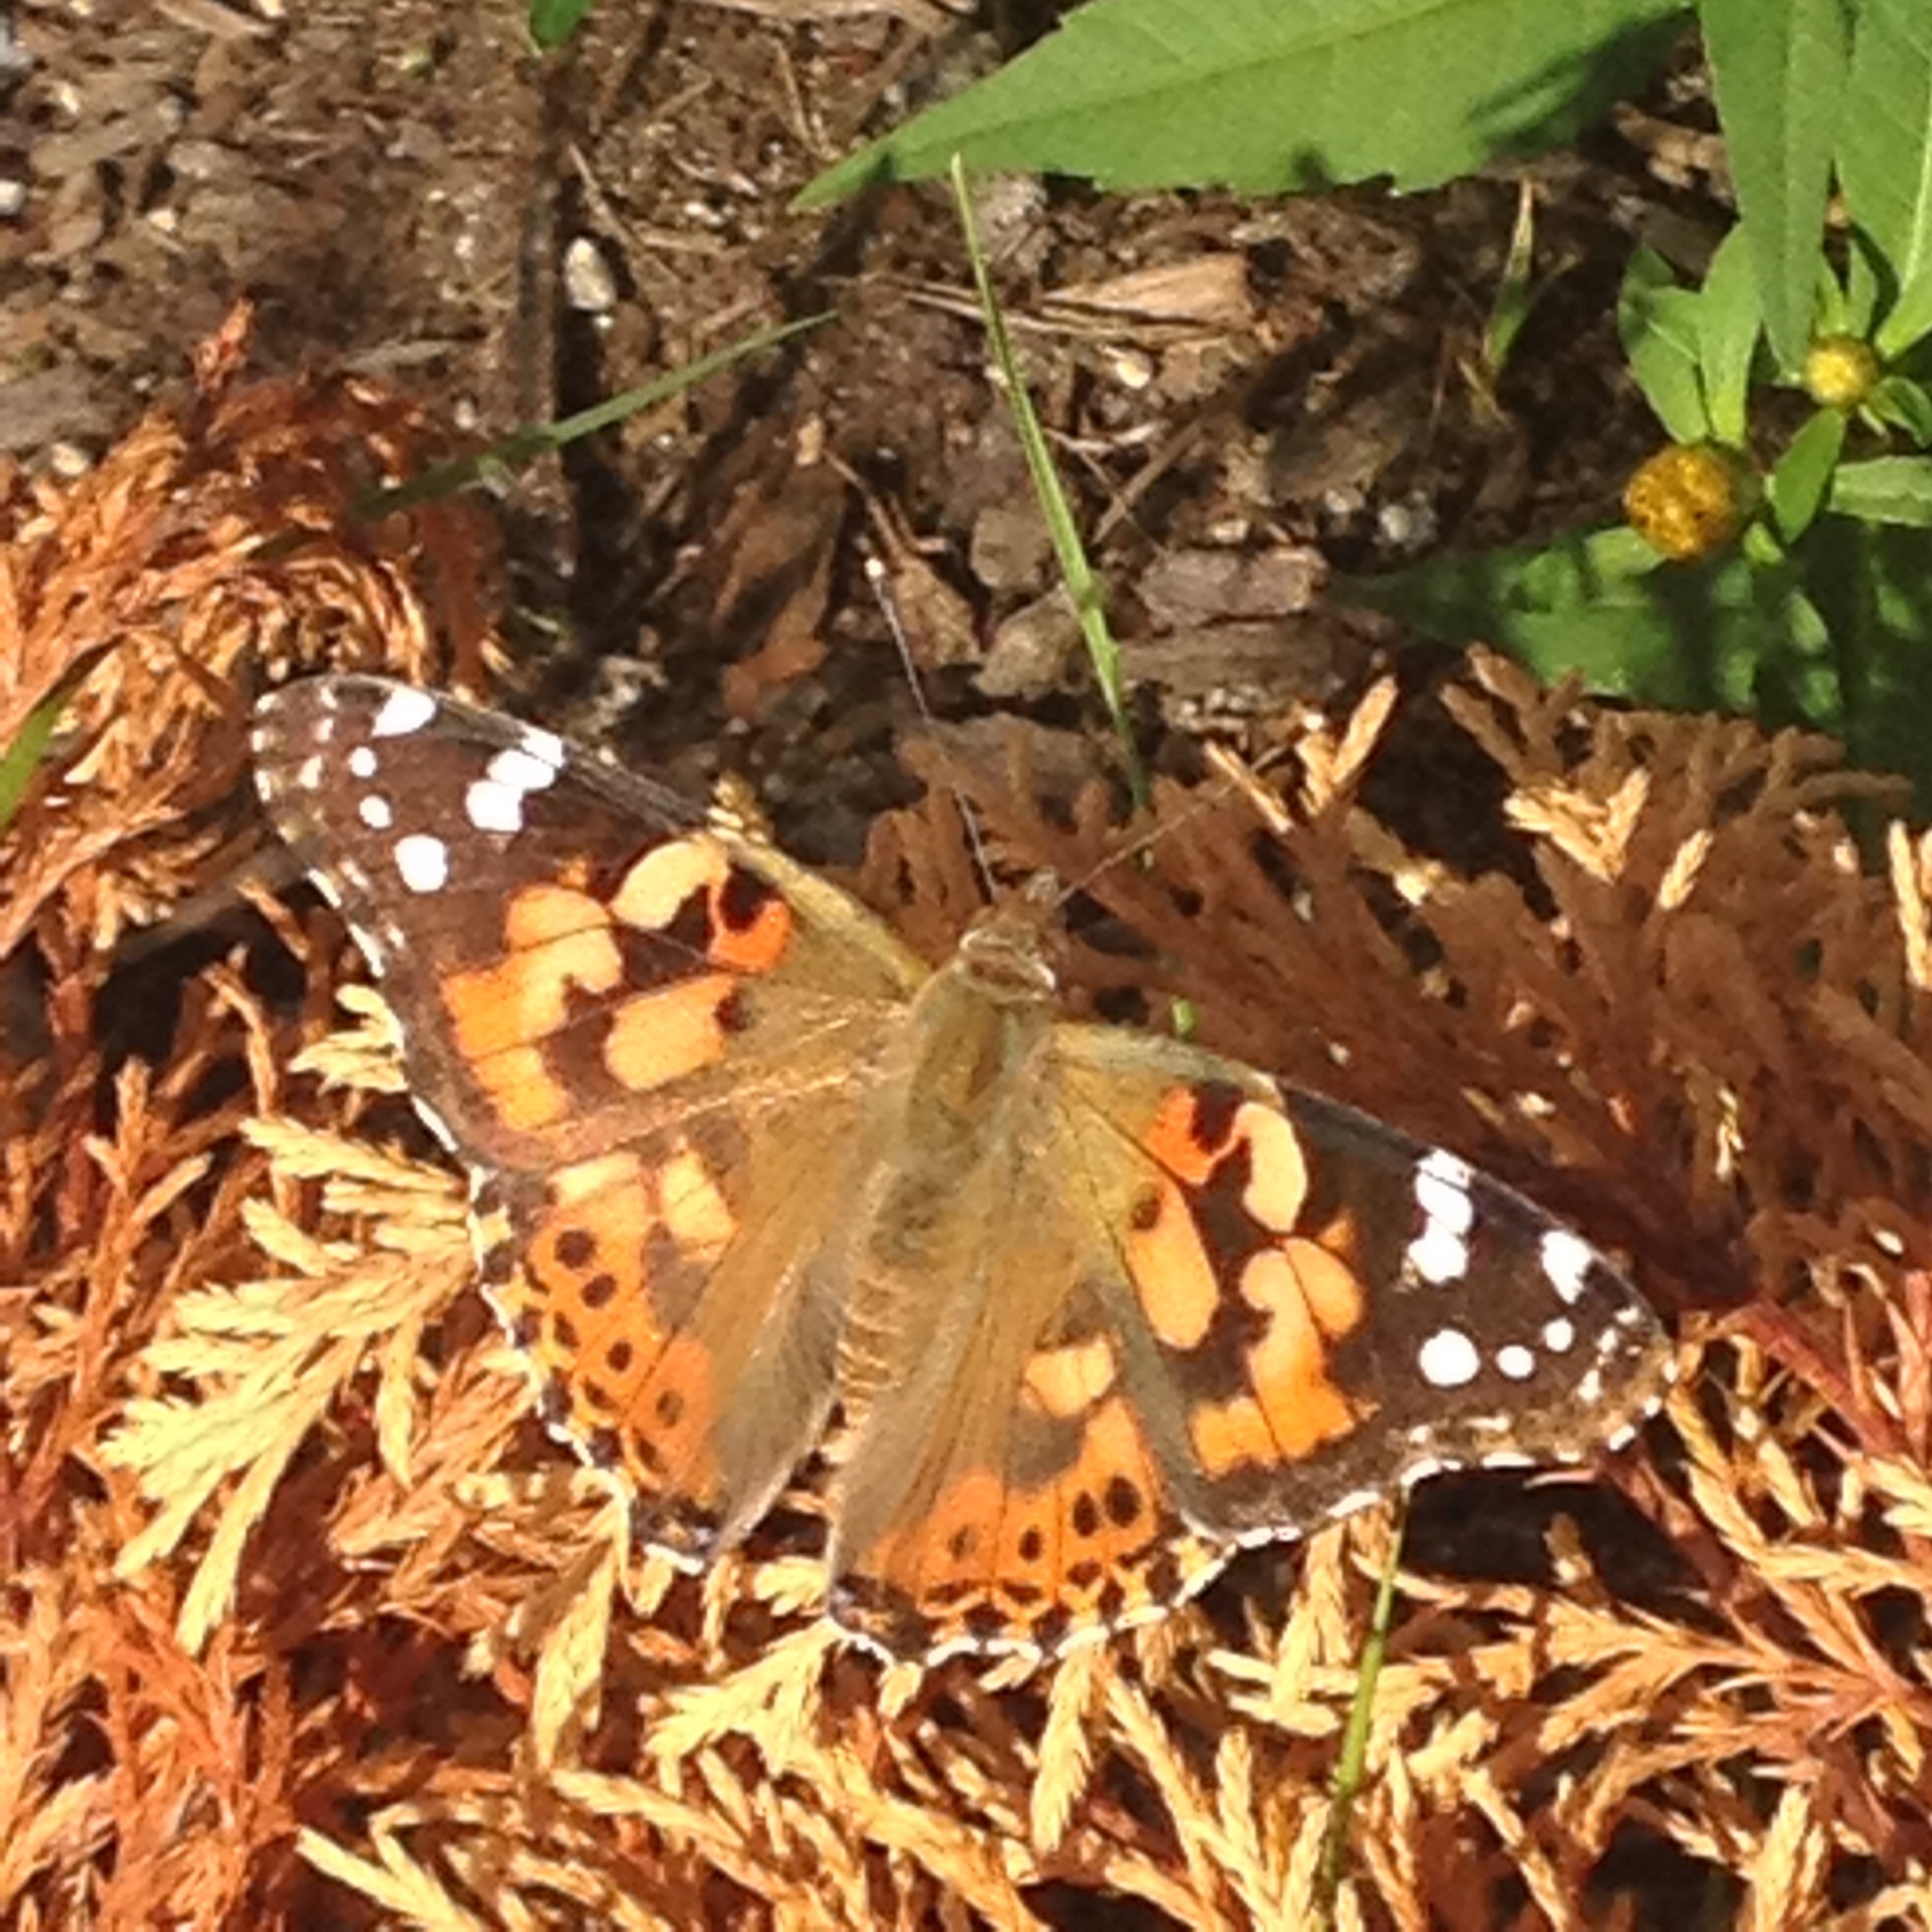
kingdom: Animalia
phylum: Arthropoda
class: Insecta
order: Lepidoptera
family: Nymphalidae
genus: Vanessa
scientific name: Vanessa cardui
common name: Painted lady
